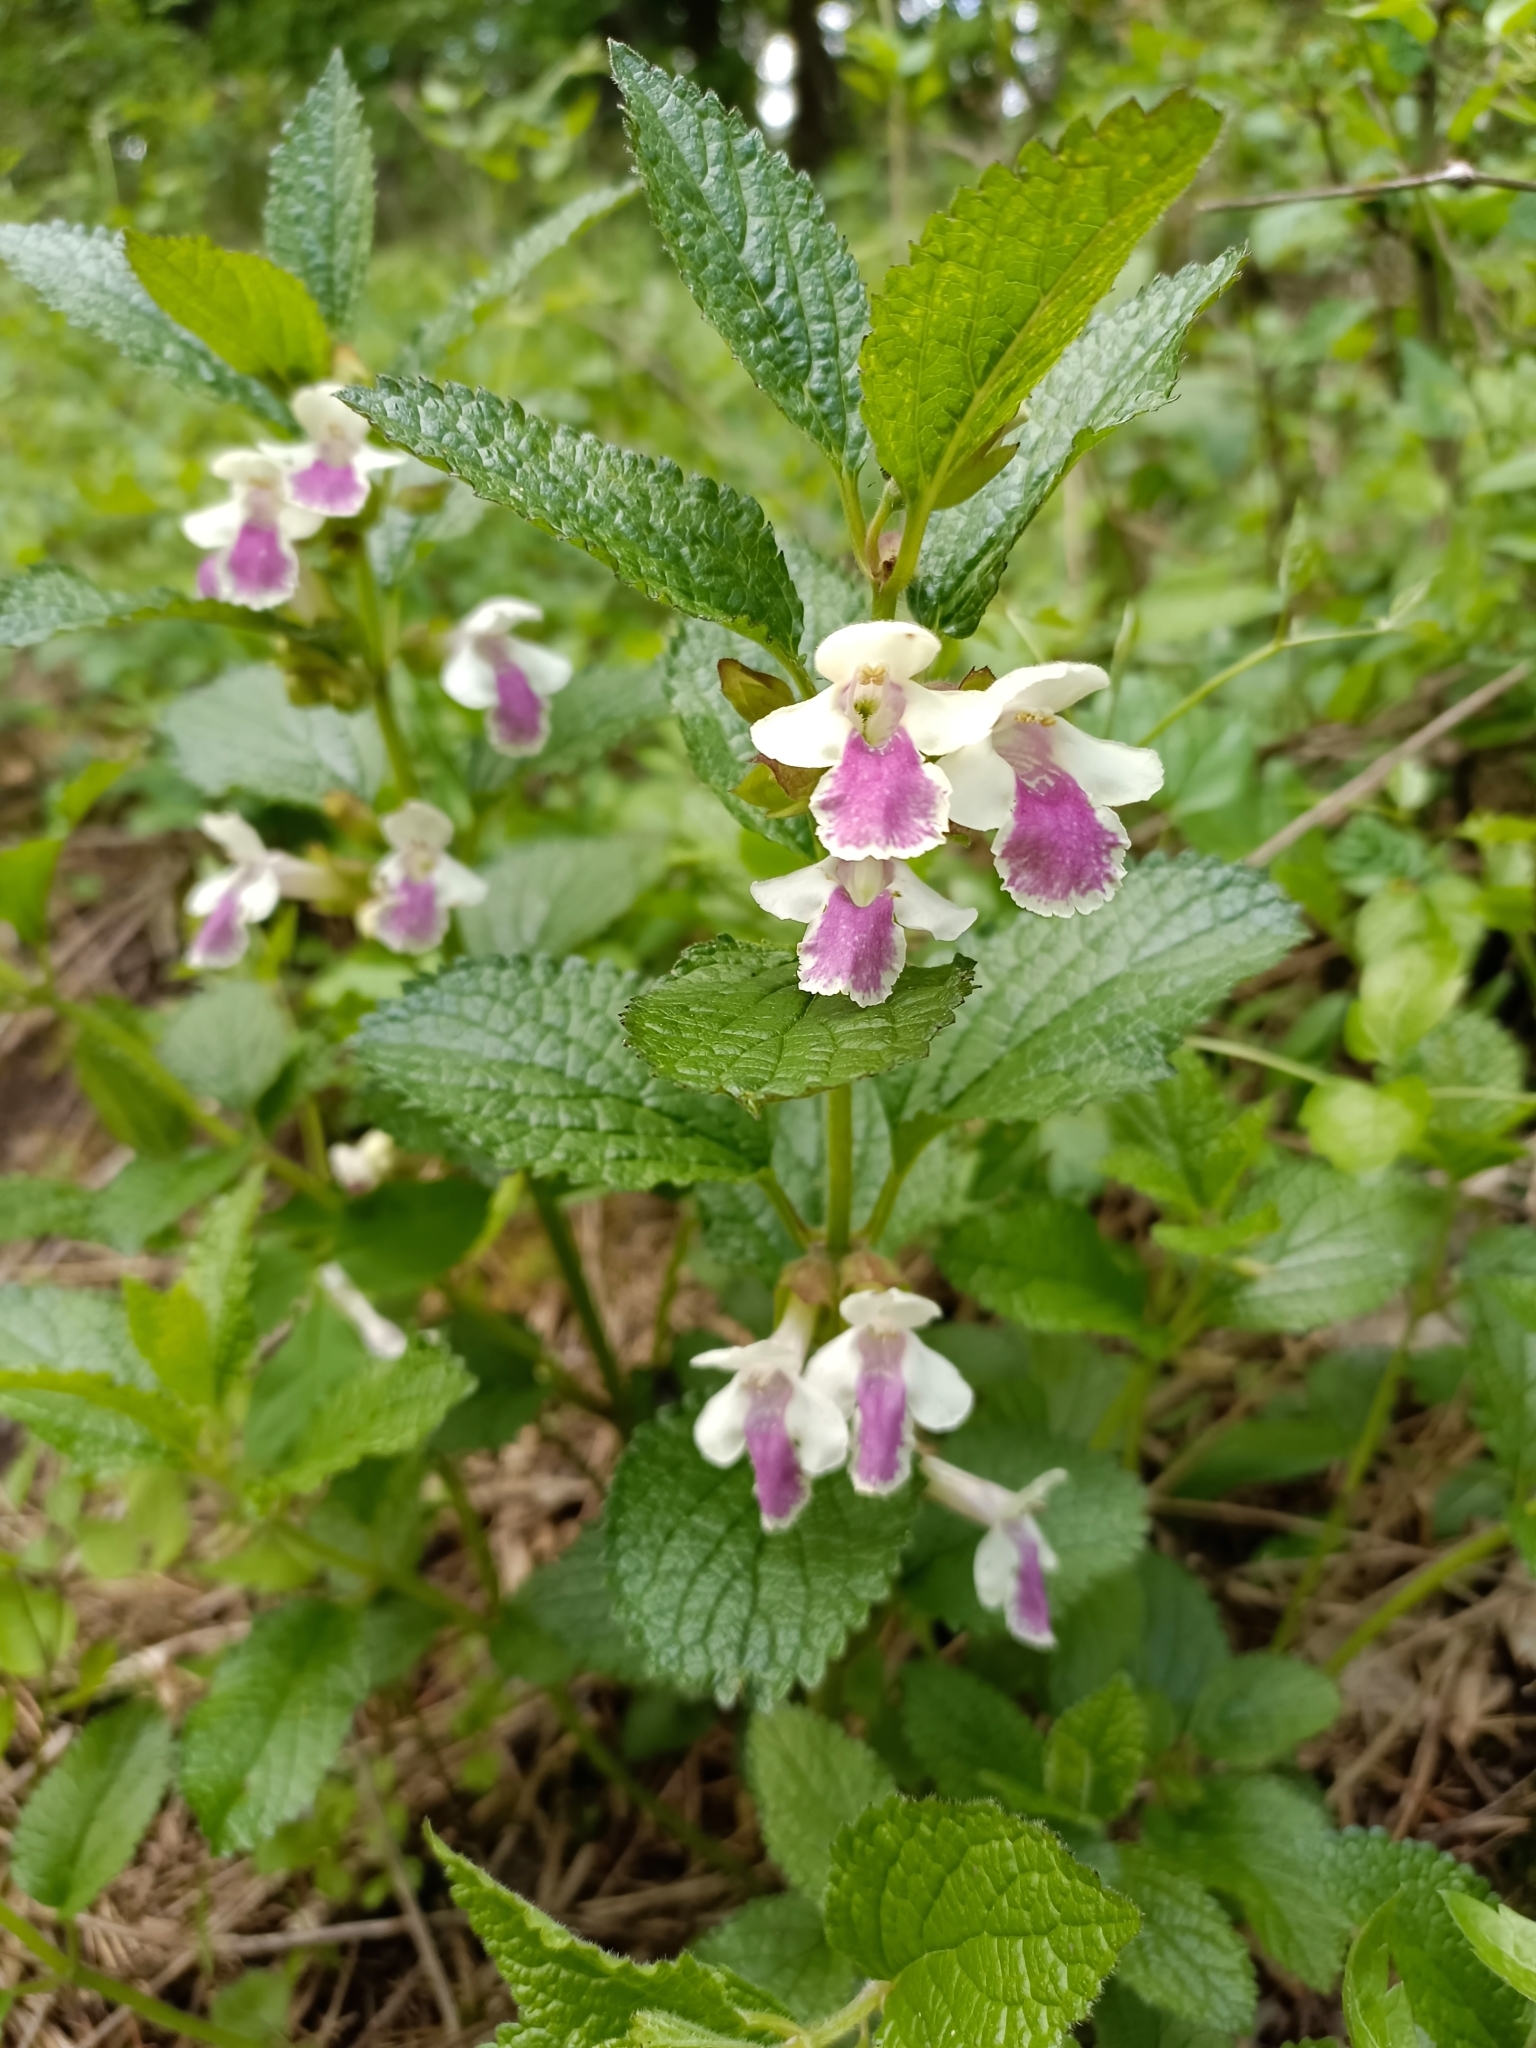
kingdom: Plantae
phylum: Tracheophyta
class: Magnoliopsida
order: Lamiales
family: Lamiaceae
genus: Melittis
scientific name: Melittis melissophyllum
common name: Bastard balm
